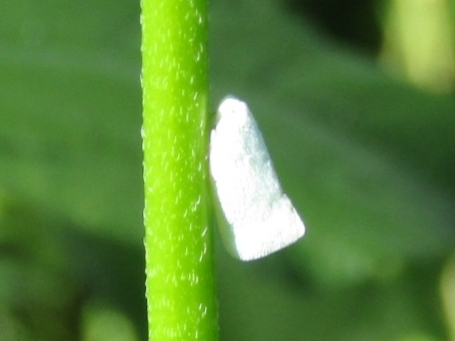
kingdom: Animalia
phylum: Arthropoda
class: Insecta
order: Hemiptera
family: Flatidae
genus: Flatormenis
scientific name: Flatormenis proxima
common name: Northern flatid planthopper
